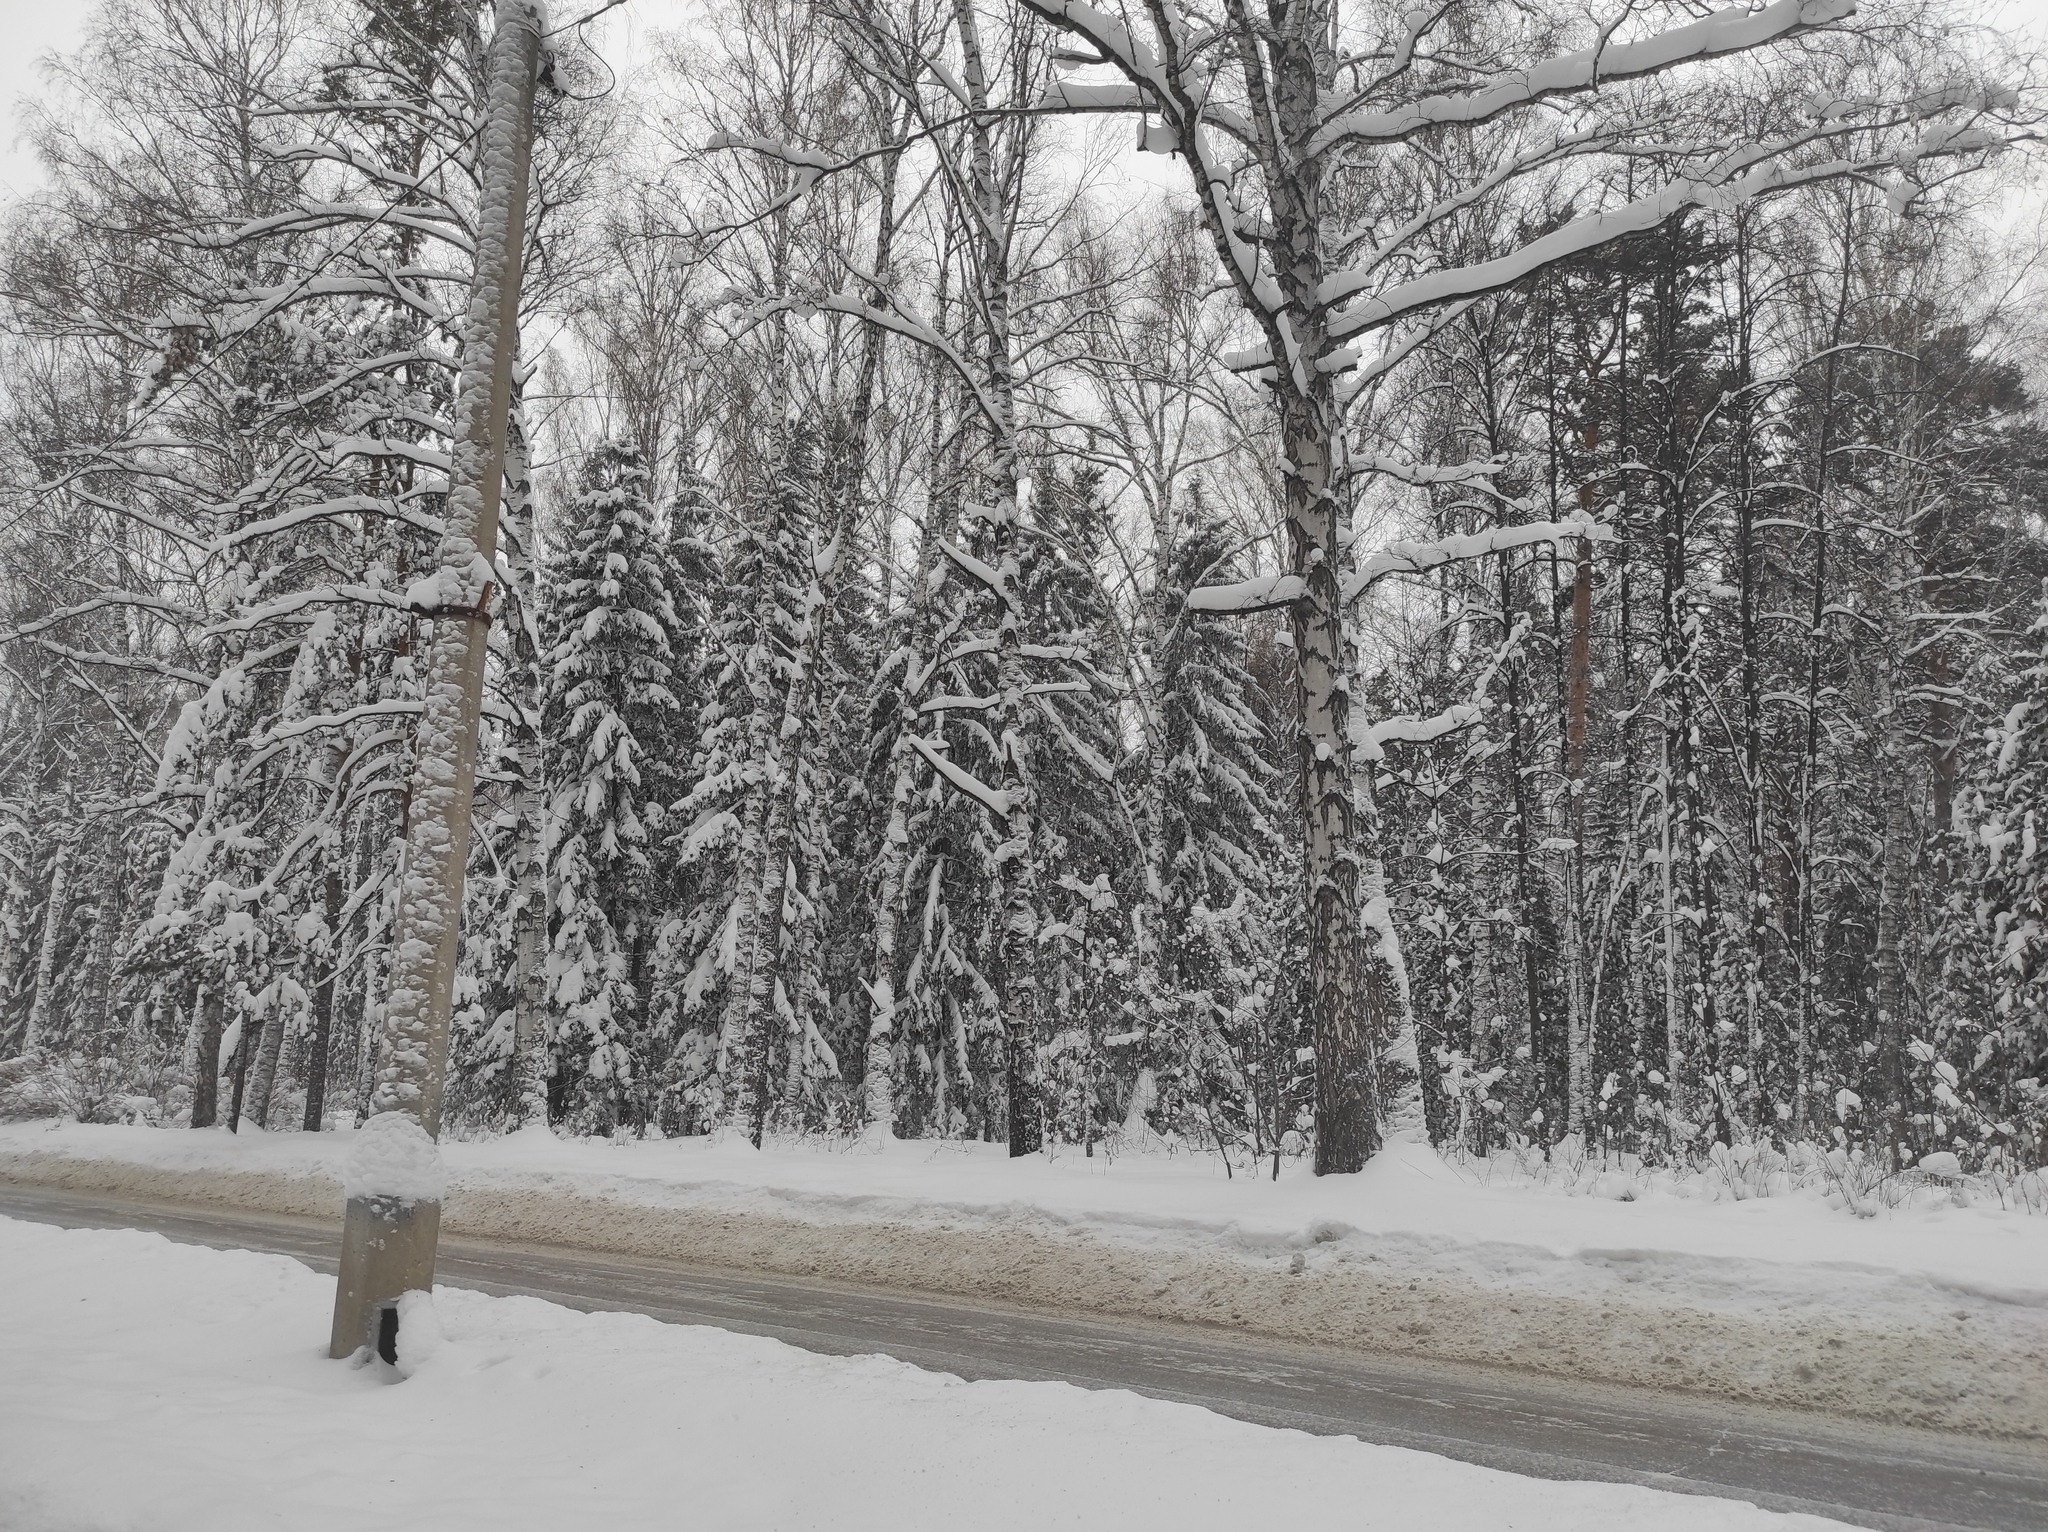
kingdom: Plantae
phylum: Tracheophyta
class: Magnoliopsida
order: Fagales
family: Betulaceae
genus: Betula
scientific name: Betula pendula
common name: Silver birch
